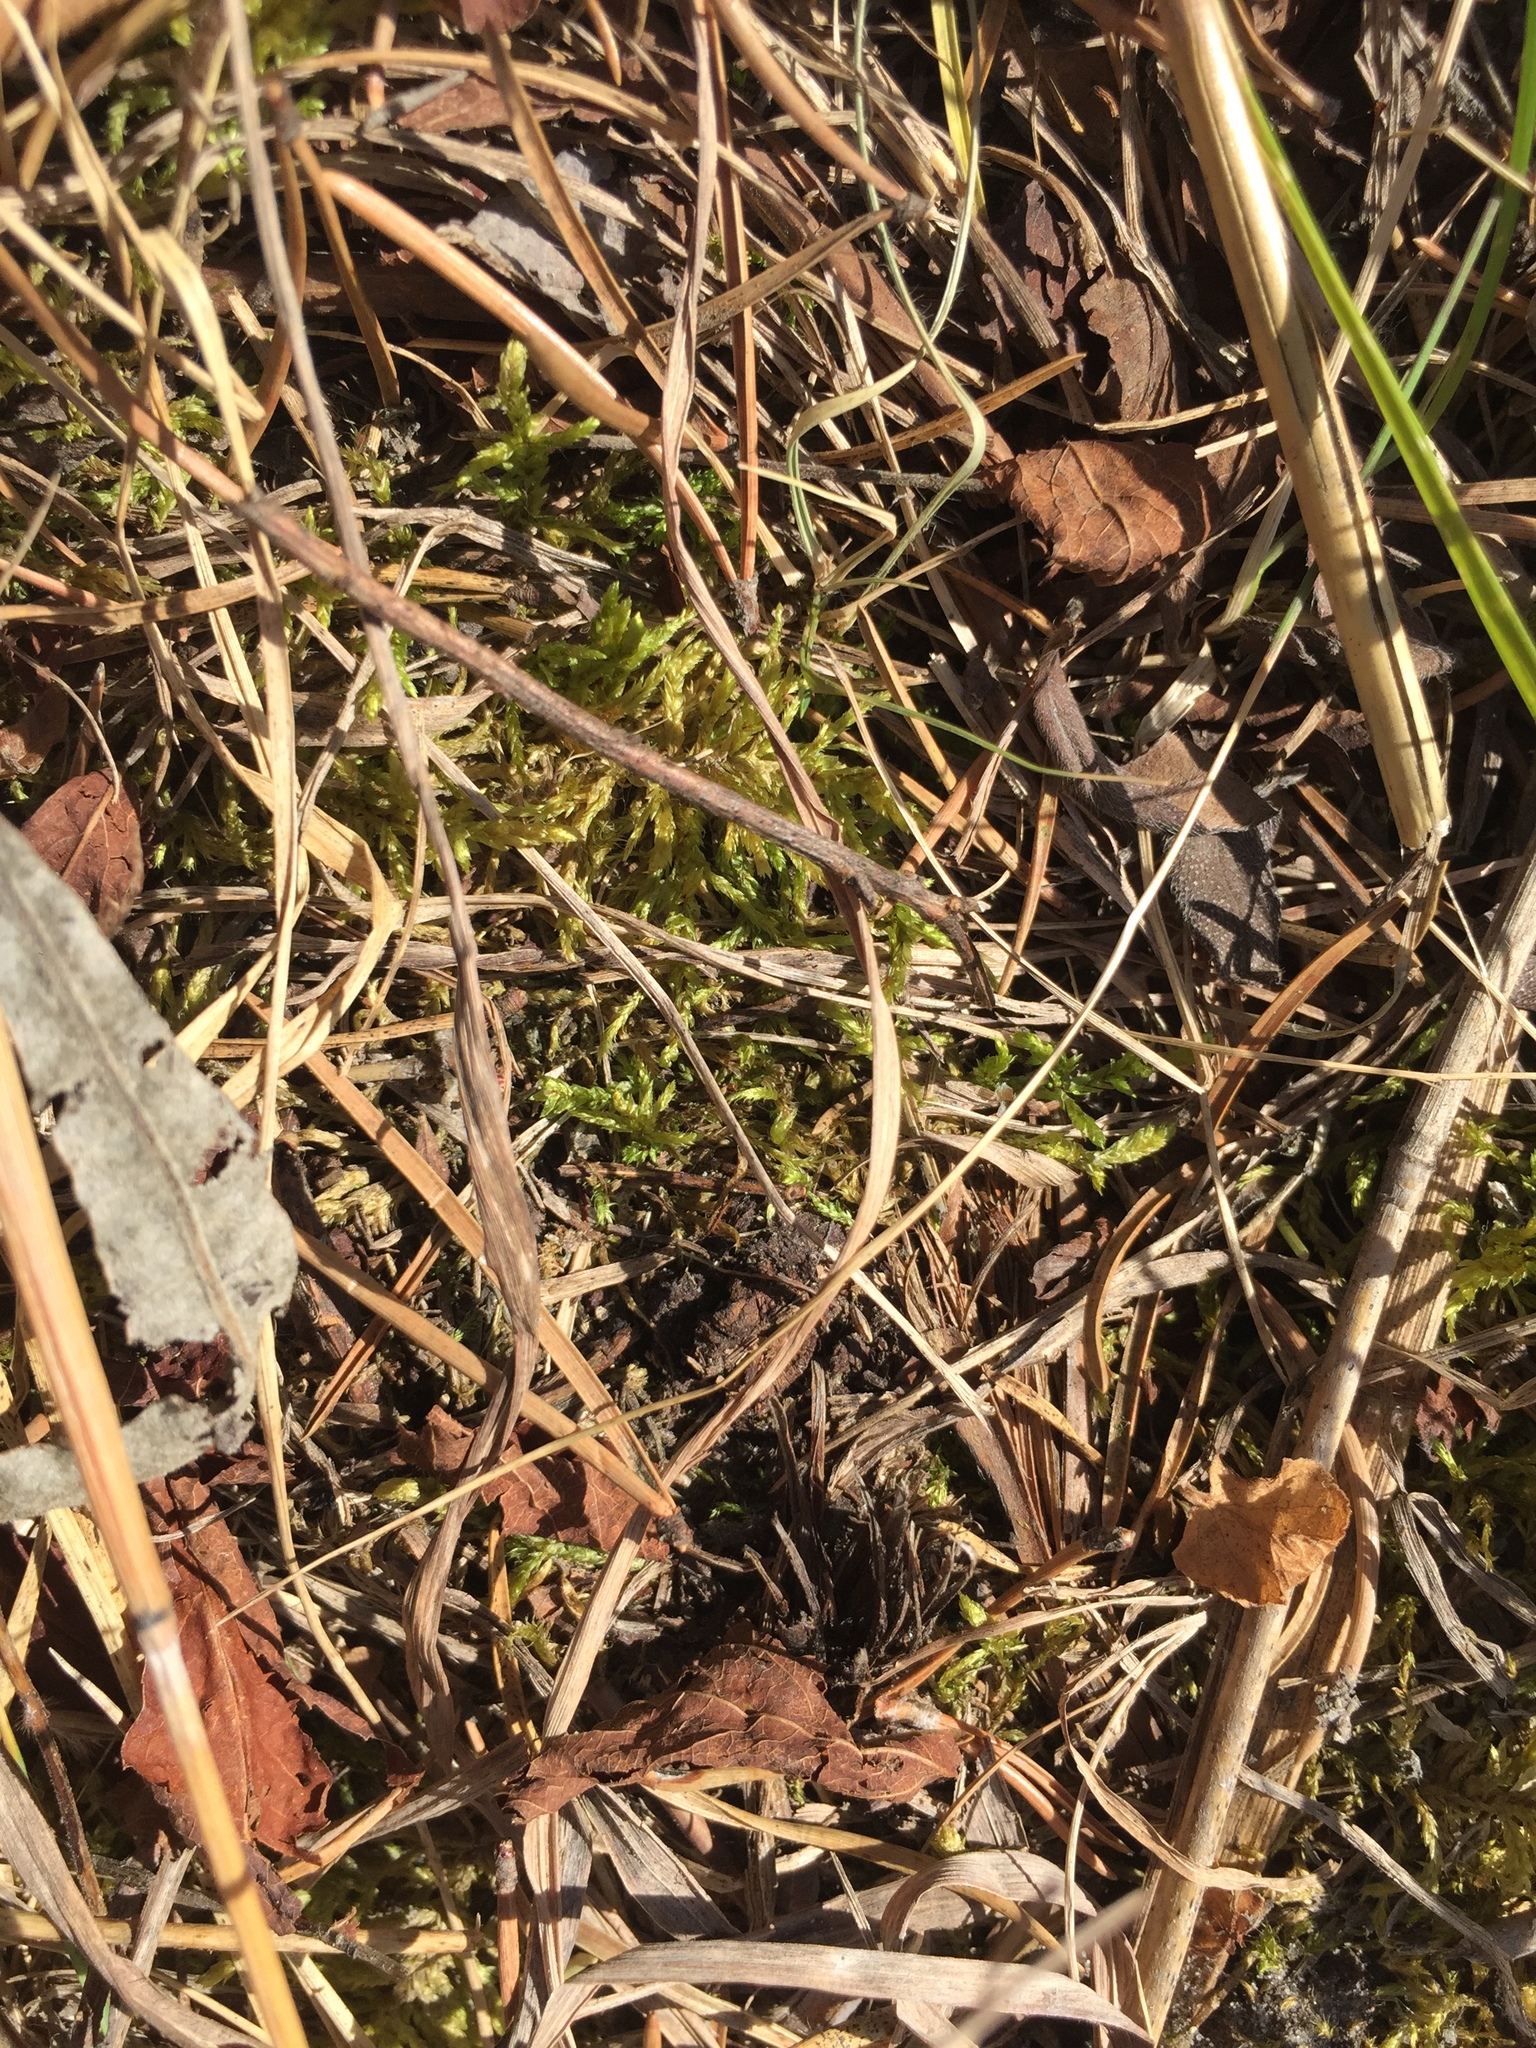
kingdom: Plantae
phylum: Bryophyta
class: Bryopsida
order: Hypnales
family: Hylocomiaceae
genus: Pleurozium
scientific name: Pleurozium schreberi
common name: Red-stemmed feather moss
